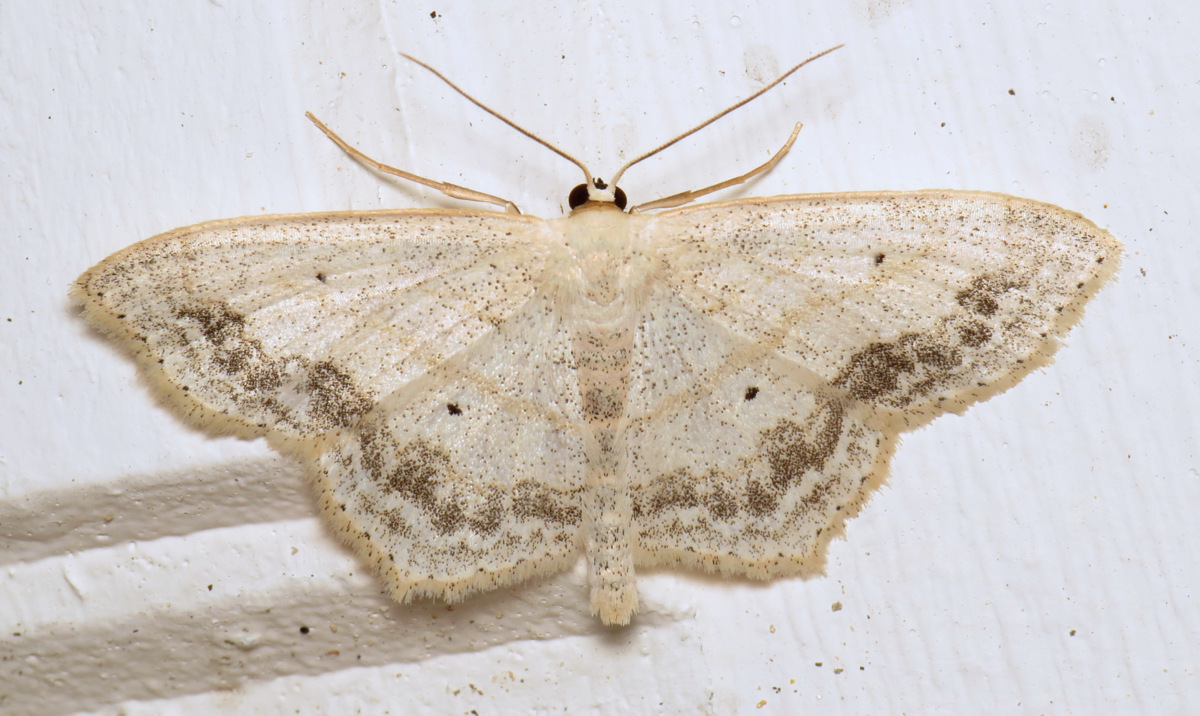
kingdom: Animalia
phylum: Arthropoda
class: Insecta
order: Lepidoptera
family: Geometridae
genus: Scopula
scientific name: Scopula limboundata
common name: Large lace border
